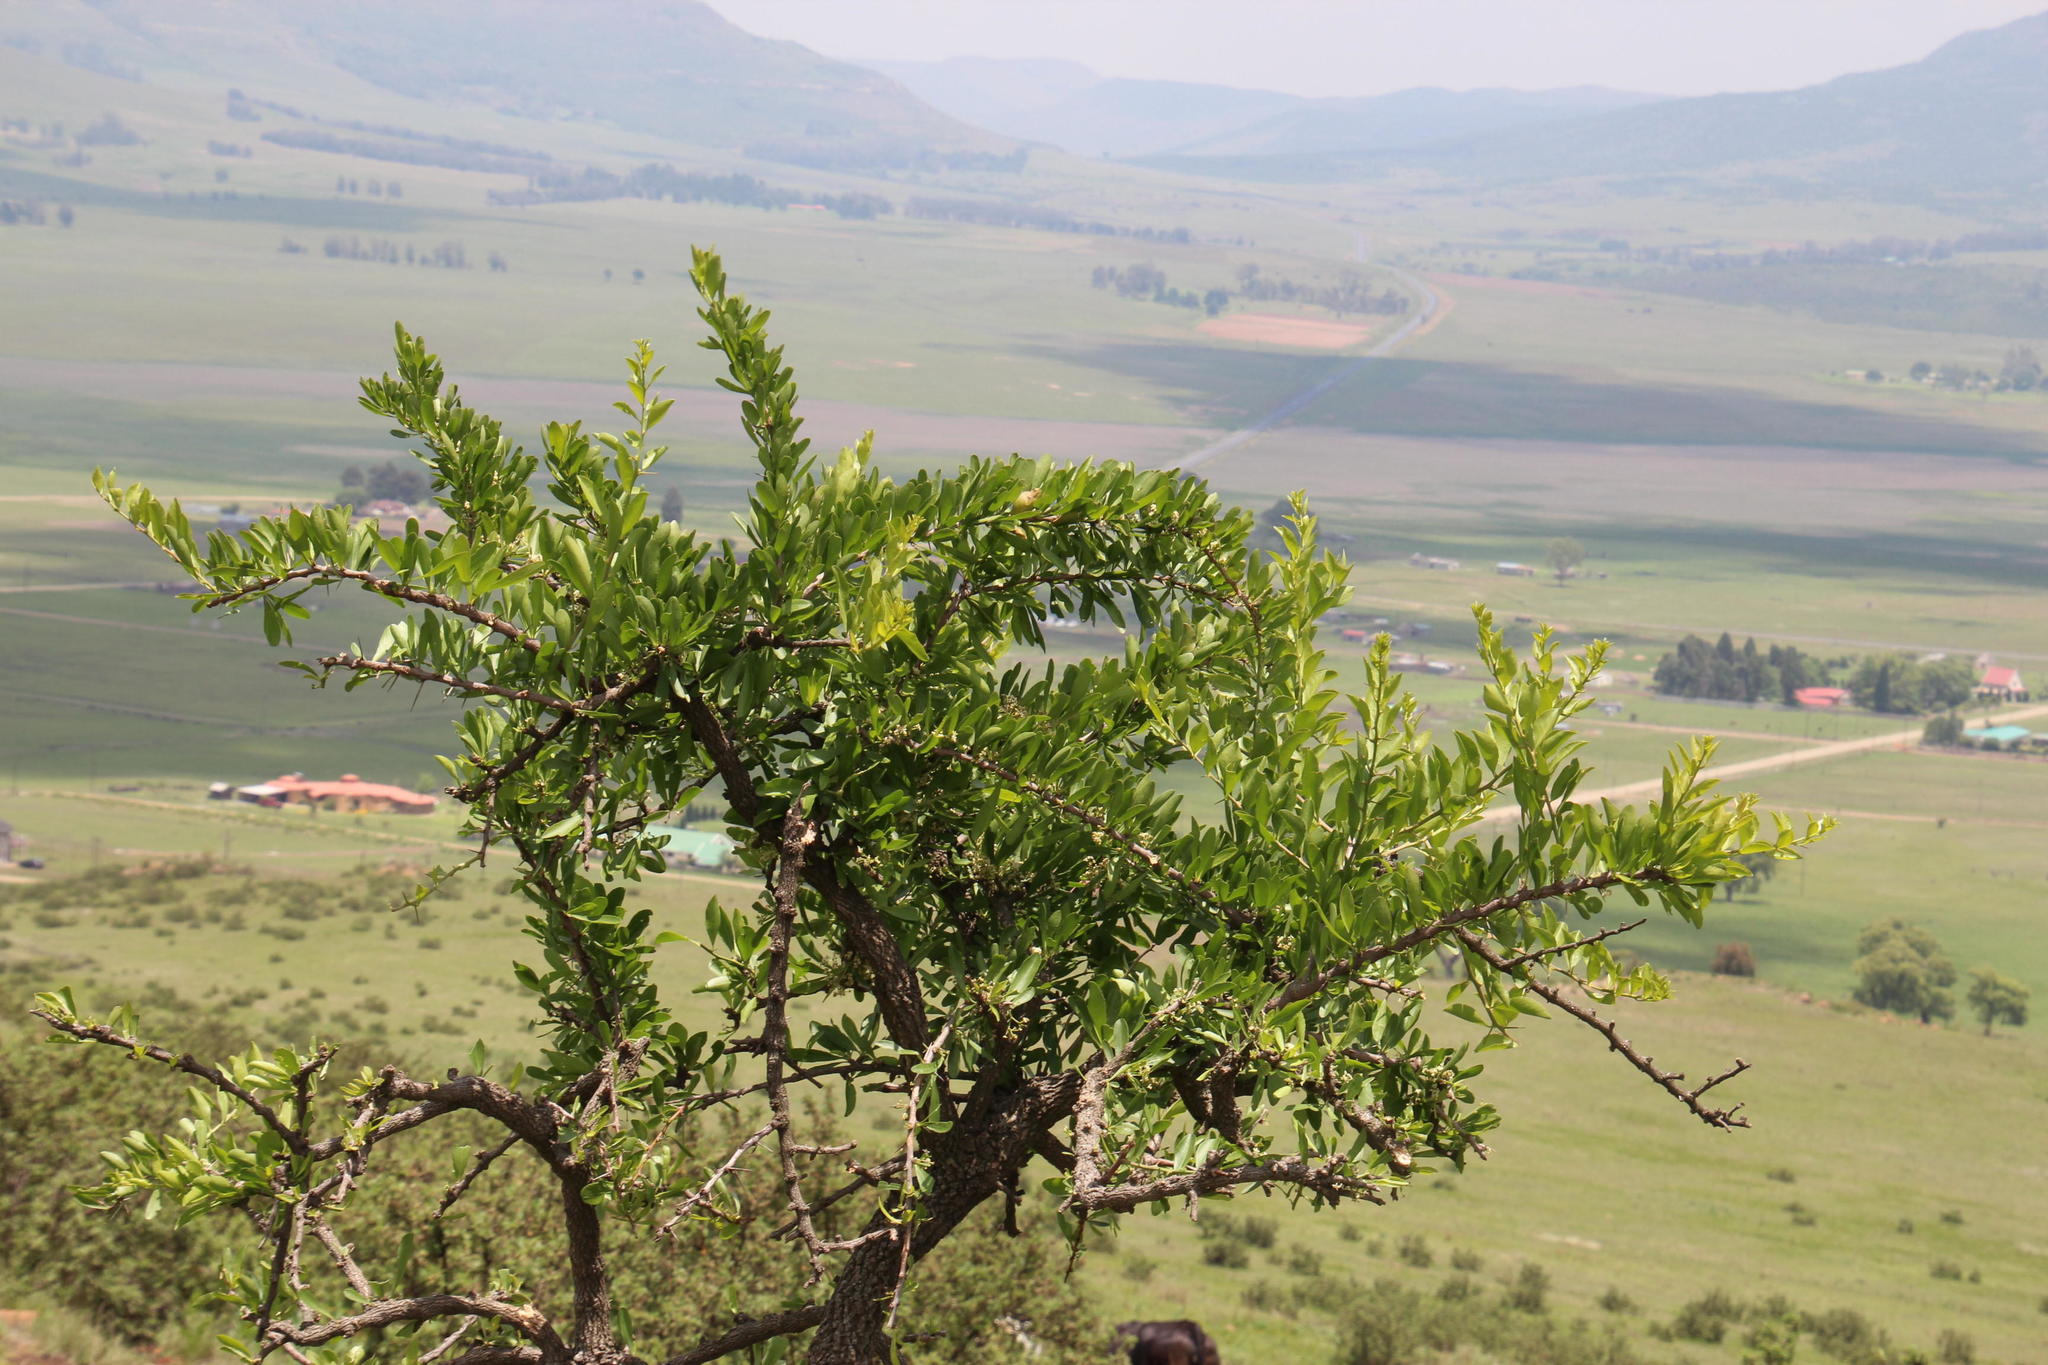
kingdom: Plantae
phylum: Tracheophyta
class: Magnoliopsida
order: Celastrales
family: Celastraceae
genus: Gymnosporia
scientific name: Gymnosporia buxifolia
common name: Common spike-thorn
